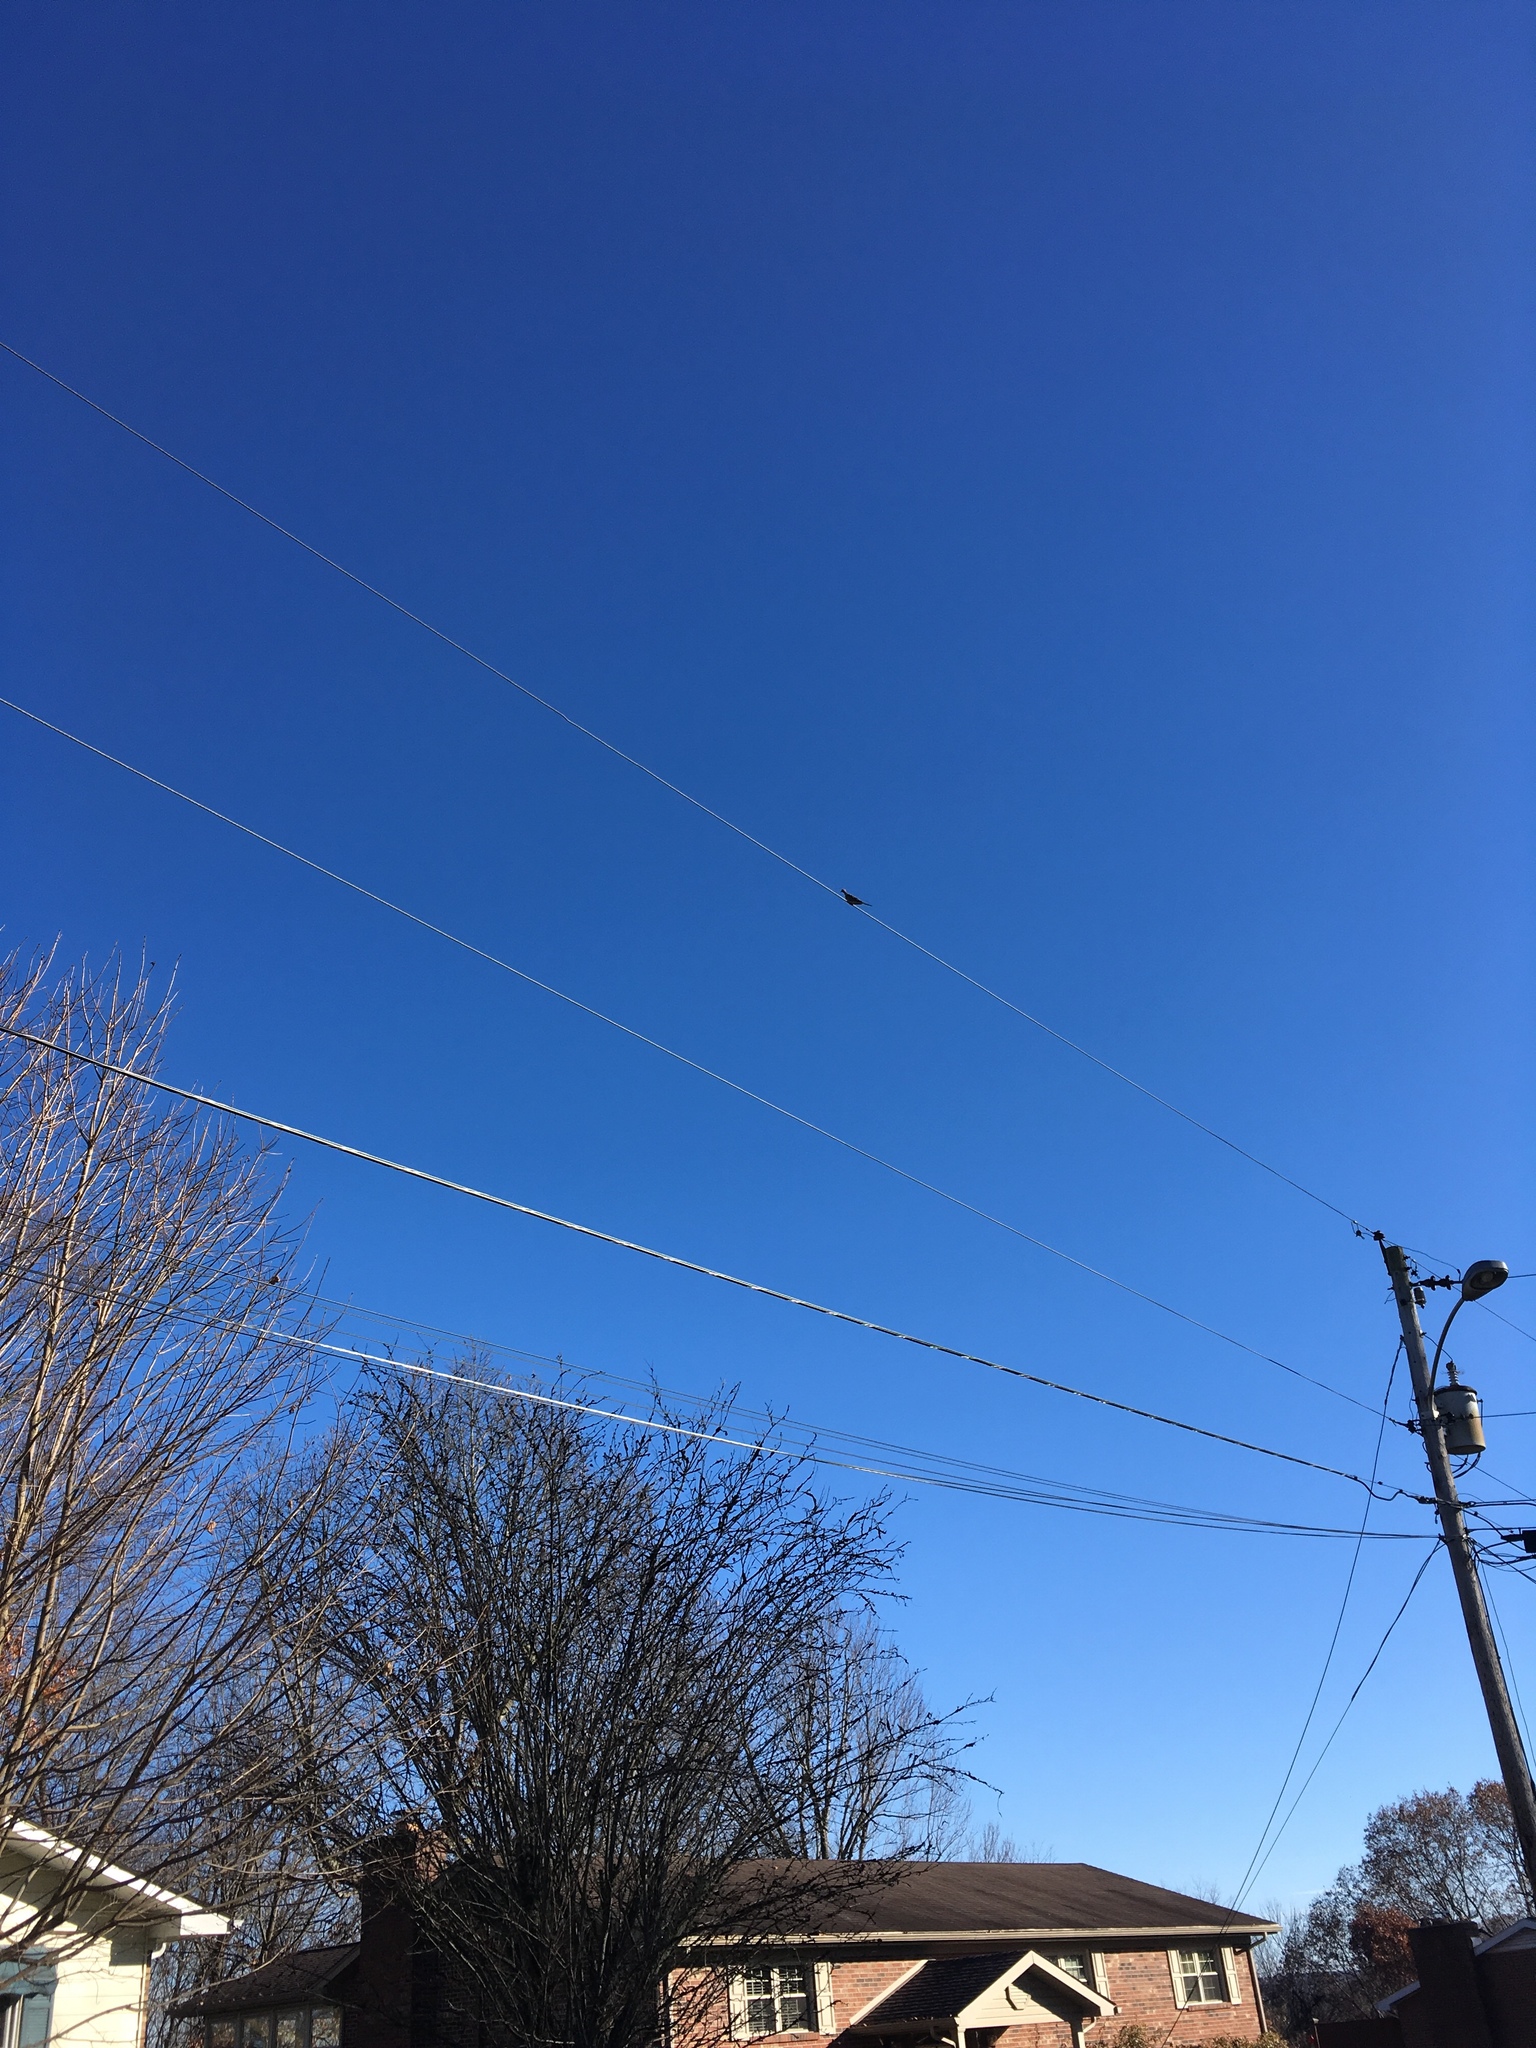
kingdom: Animalia
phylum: Chordata
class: Aves
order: Columbiformes
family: Columbidae
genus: Zenaida
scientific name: Zenaida macroura
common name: Mourning dove
